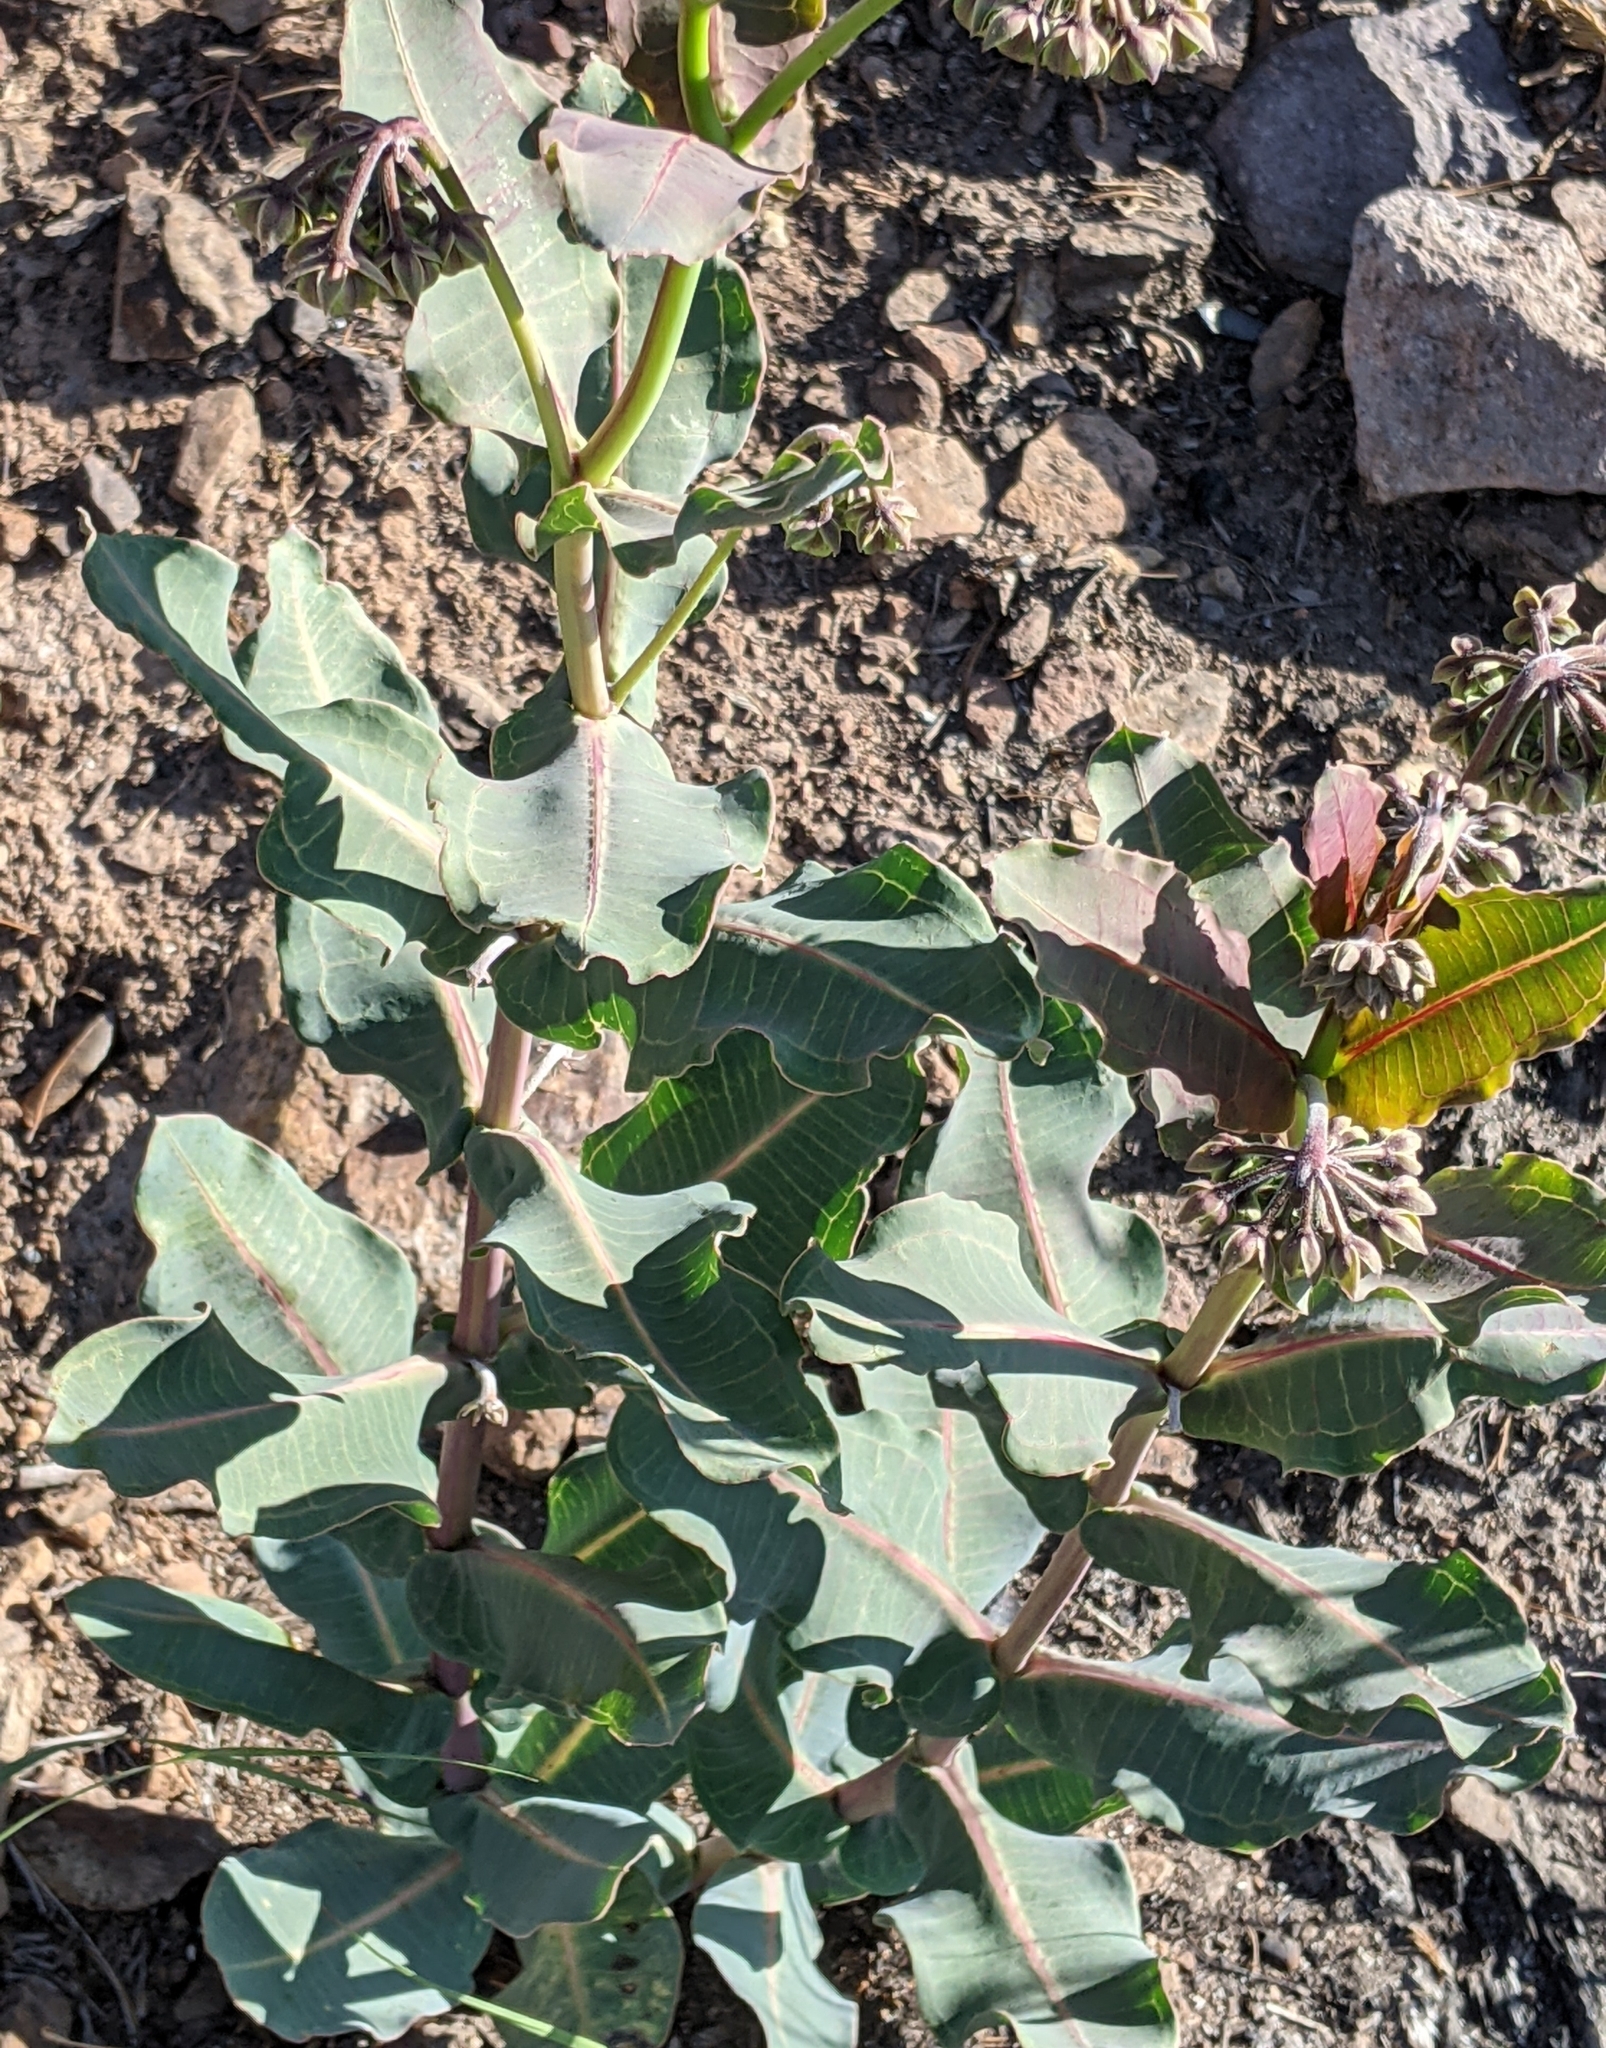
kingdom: Plantae
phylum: Tracheophyta
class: Magnoliopsida
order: Gentianales
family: Apocynaceae
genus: Asclepias
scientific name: Asclepias elata
